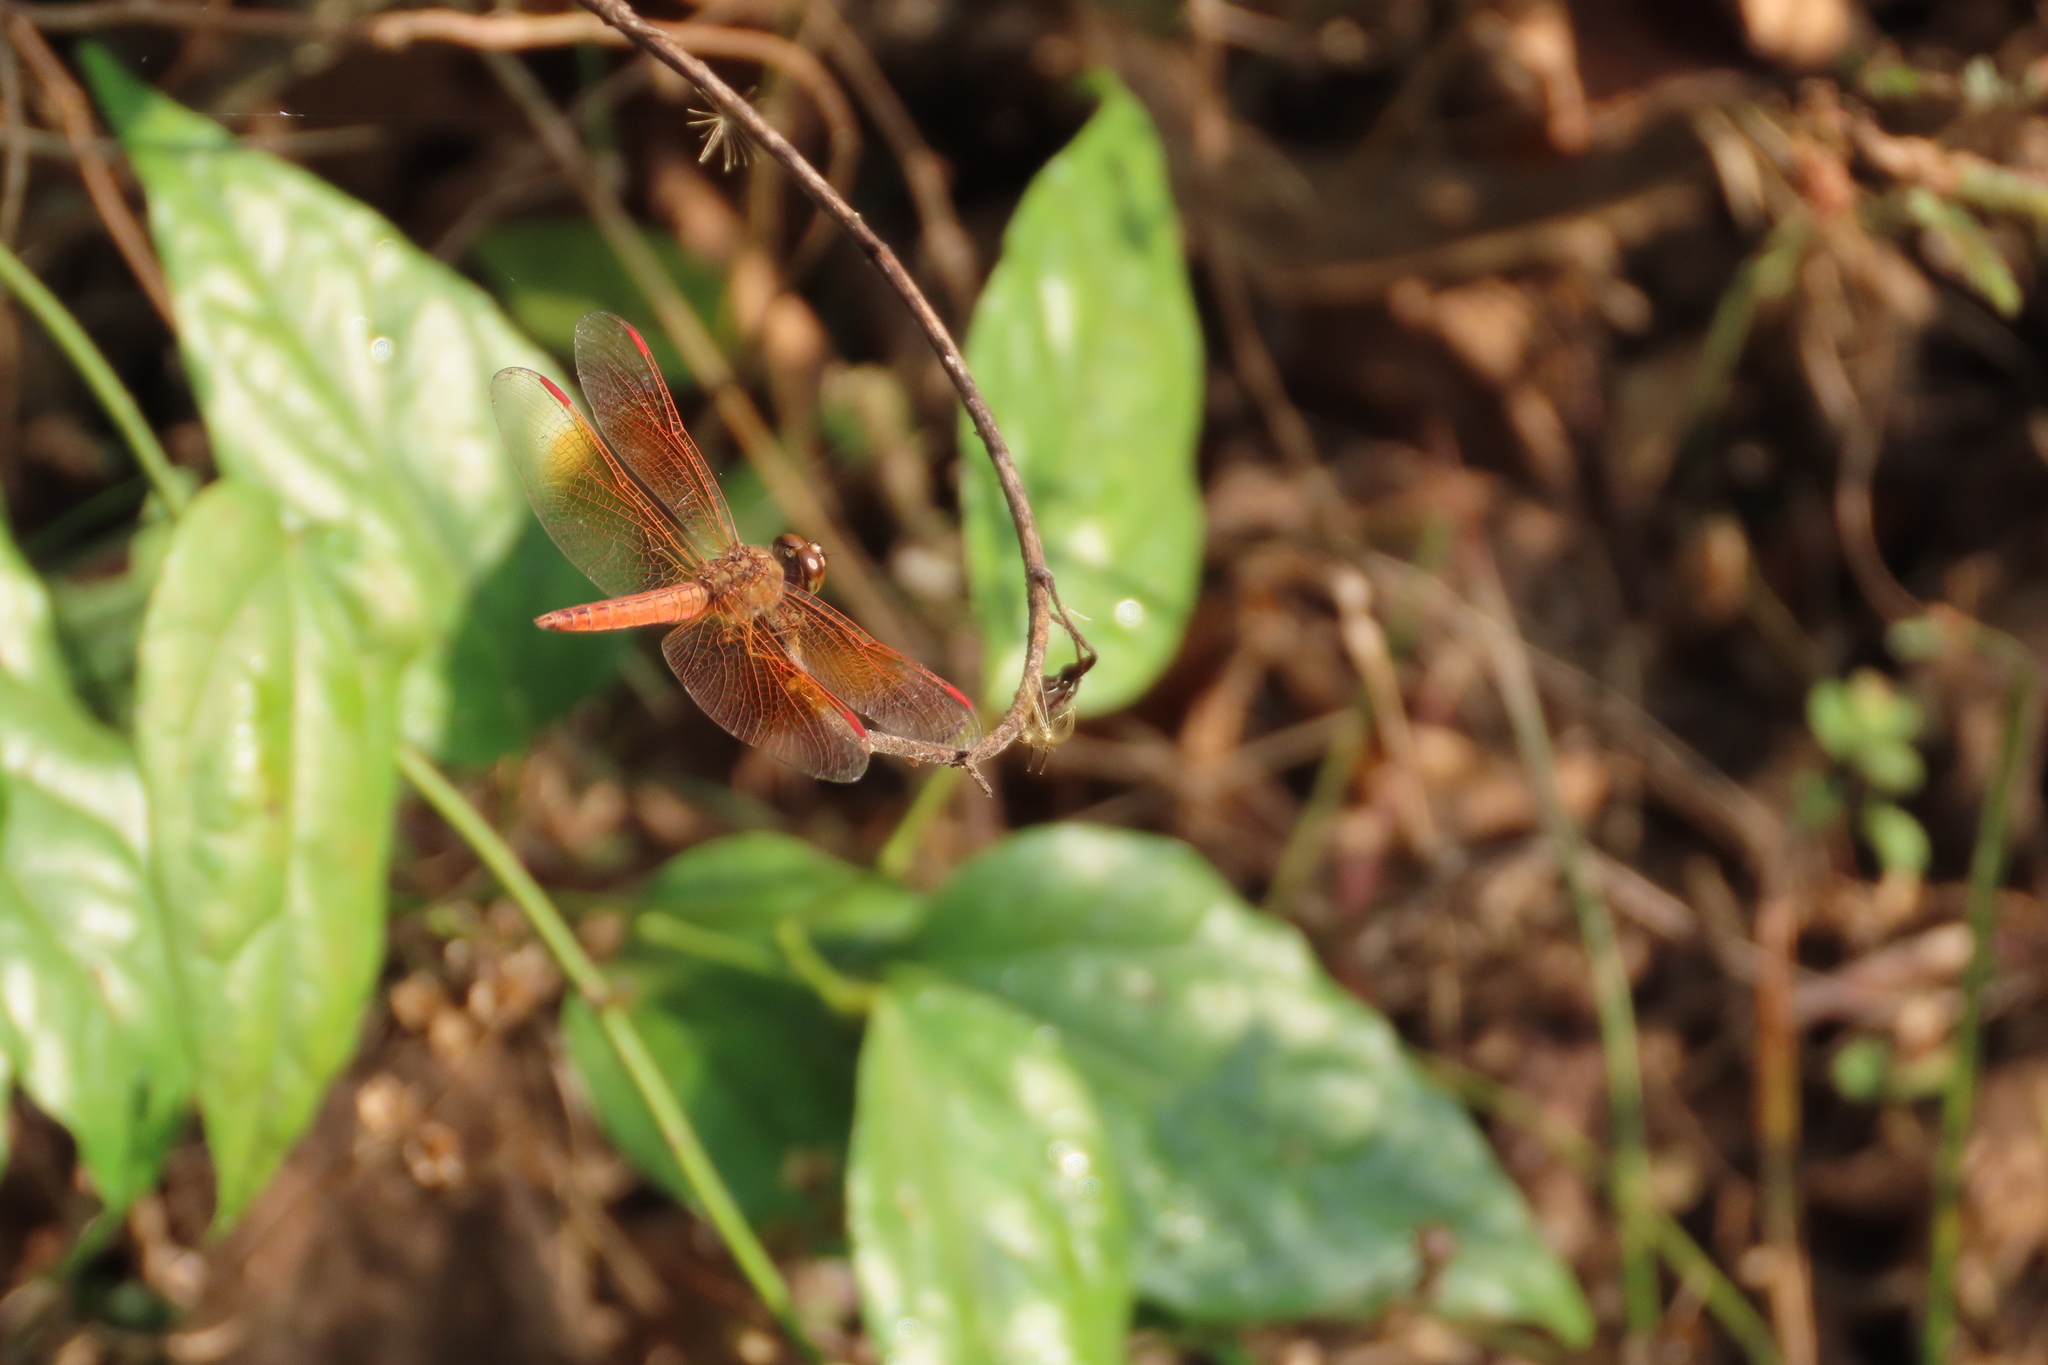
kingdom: Animalia
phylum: Arthropoda
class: Insecta
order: Odonata
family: Libellulidae
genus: Brachythemis
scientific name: Brachythemis contaminata
